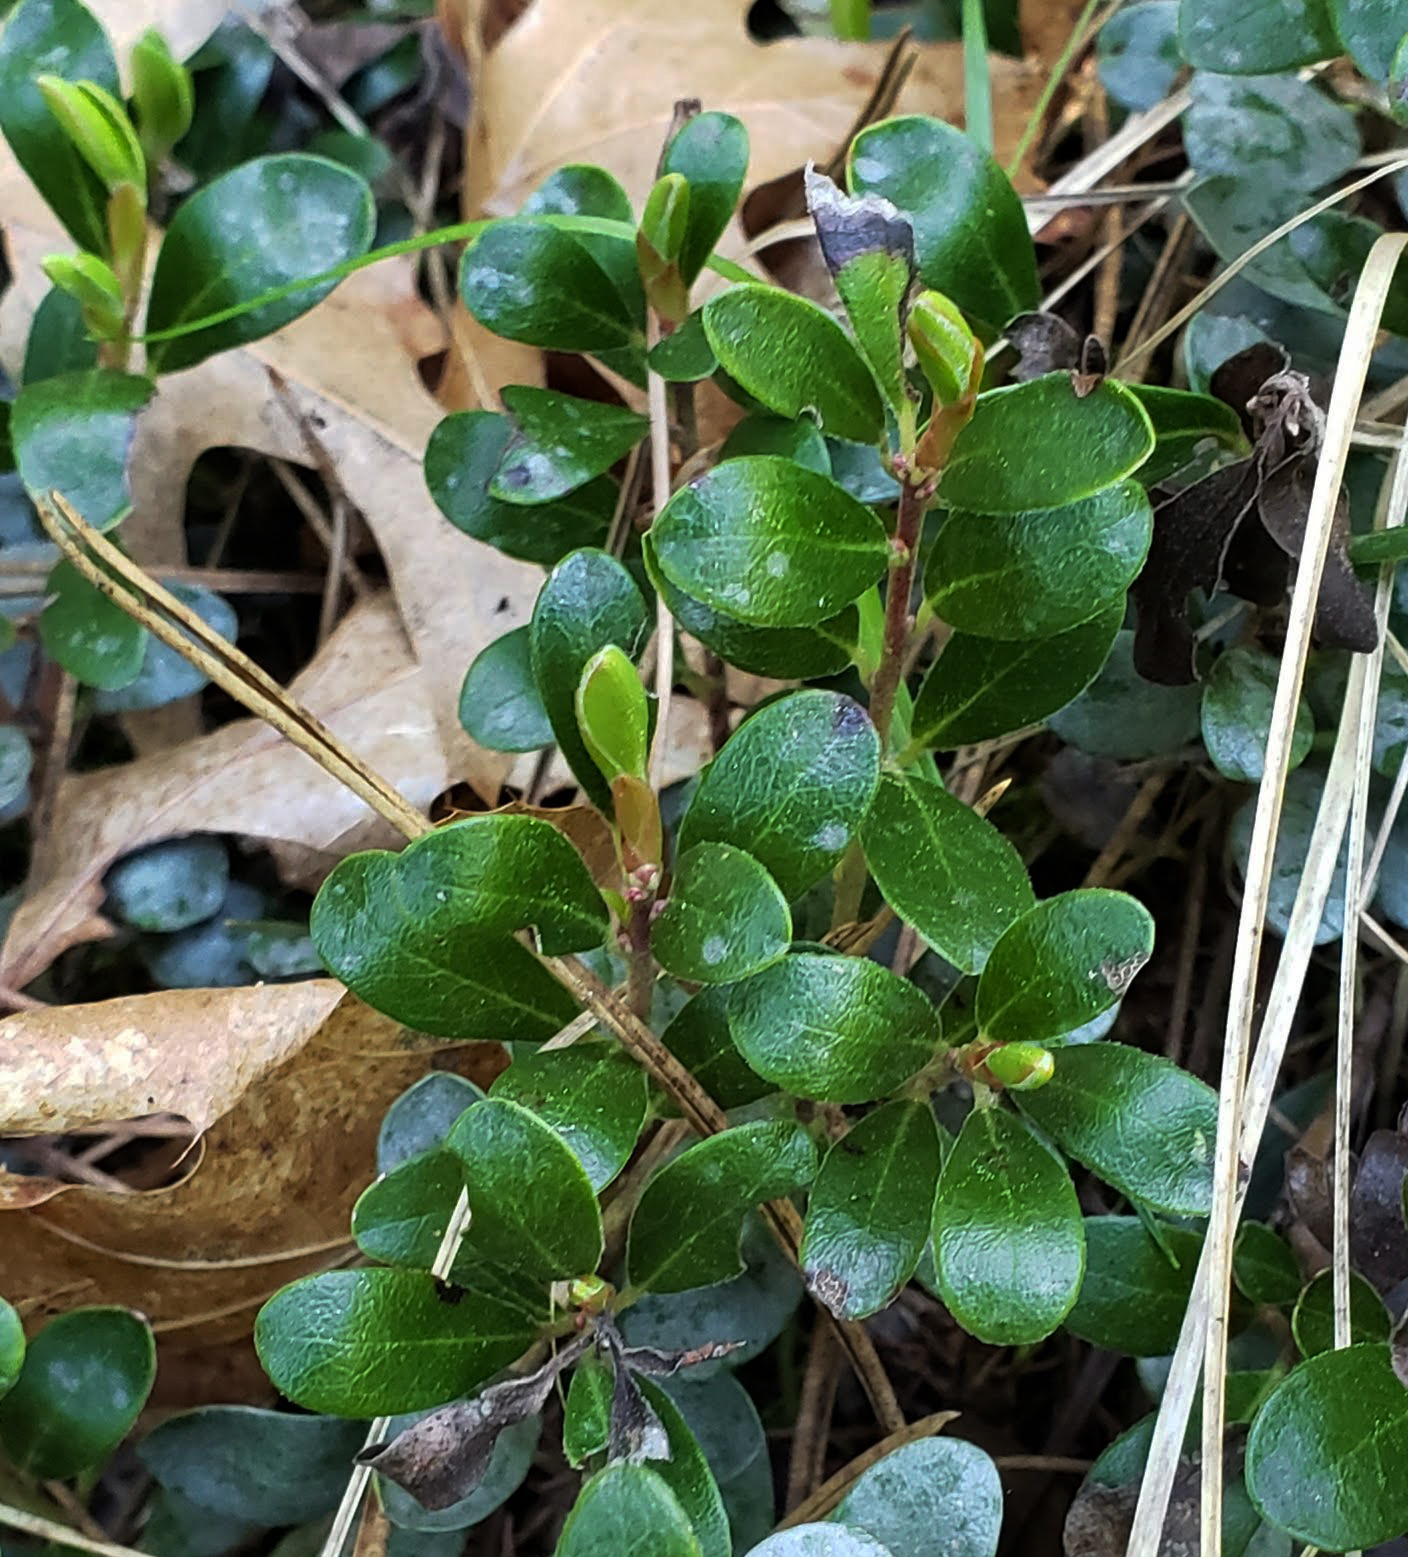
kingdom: Plantae
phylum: Tracheophyta
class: Magnoliopsida
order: Ericales
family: Ericaceae
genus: Arctostaphylos
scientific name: Arctostaphylos uva-ursi
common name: Bearberry
